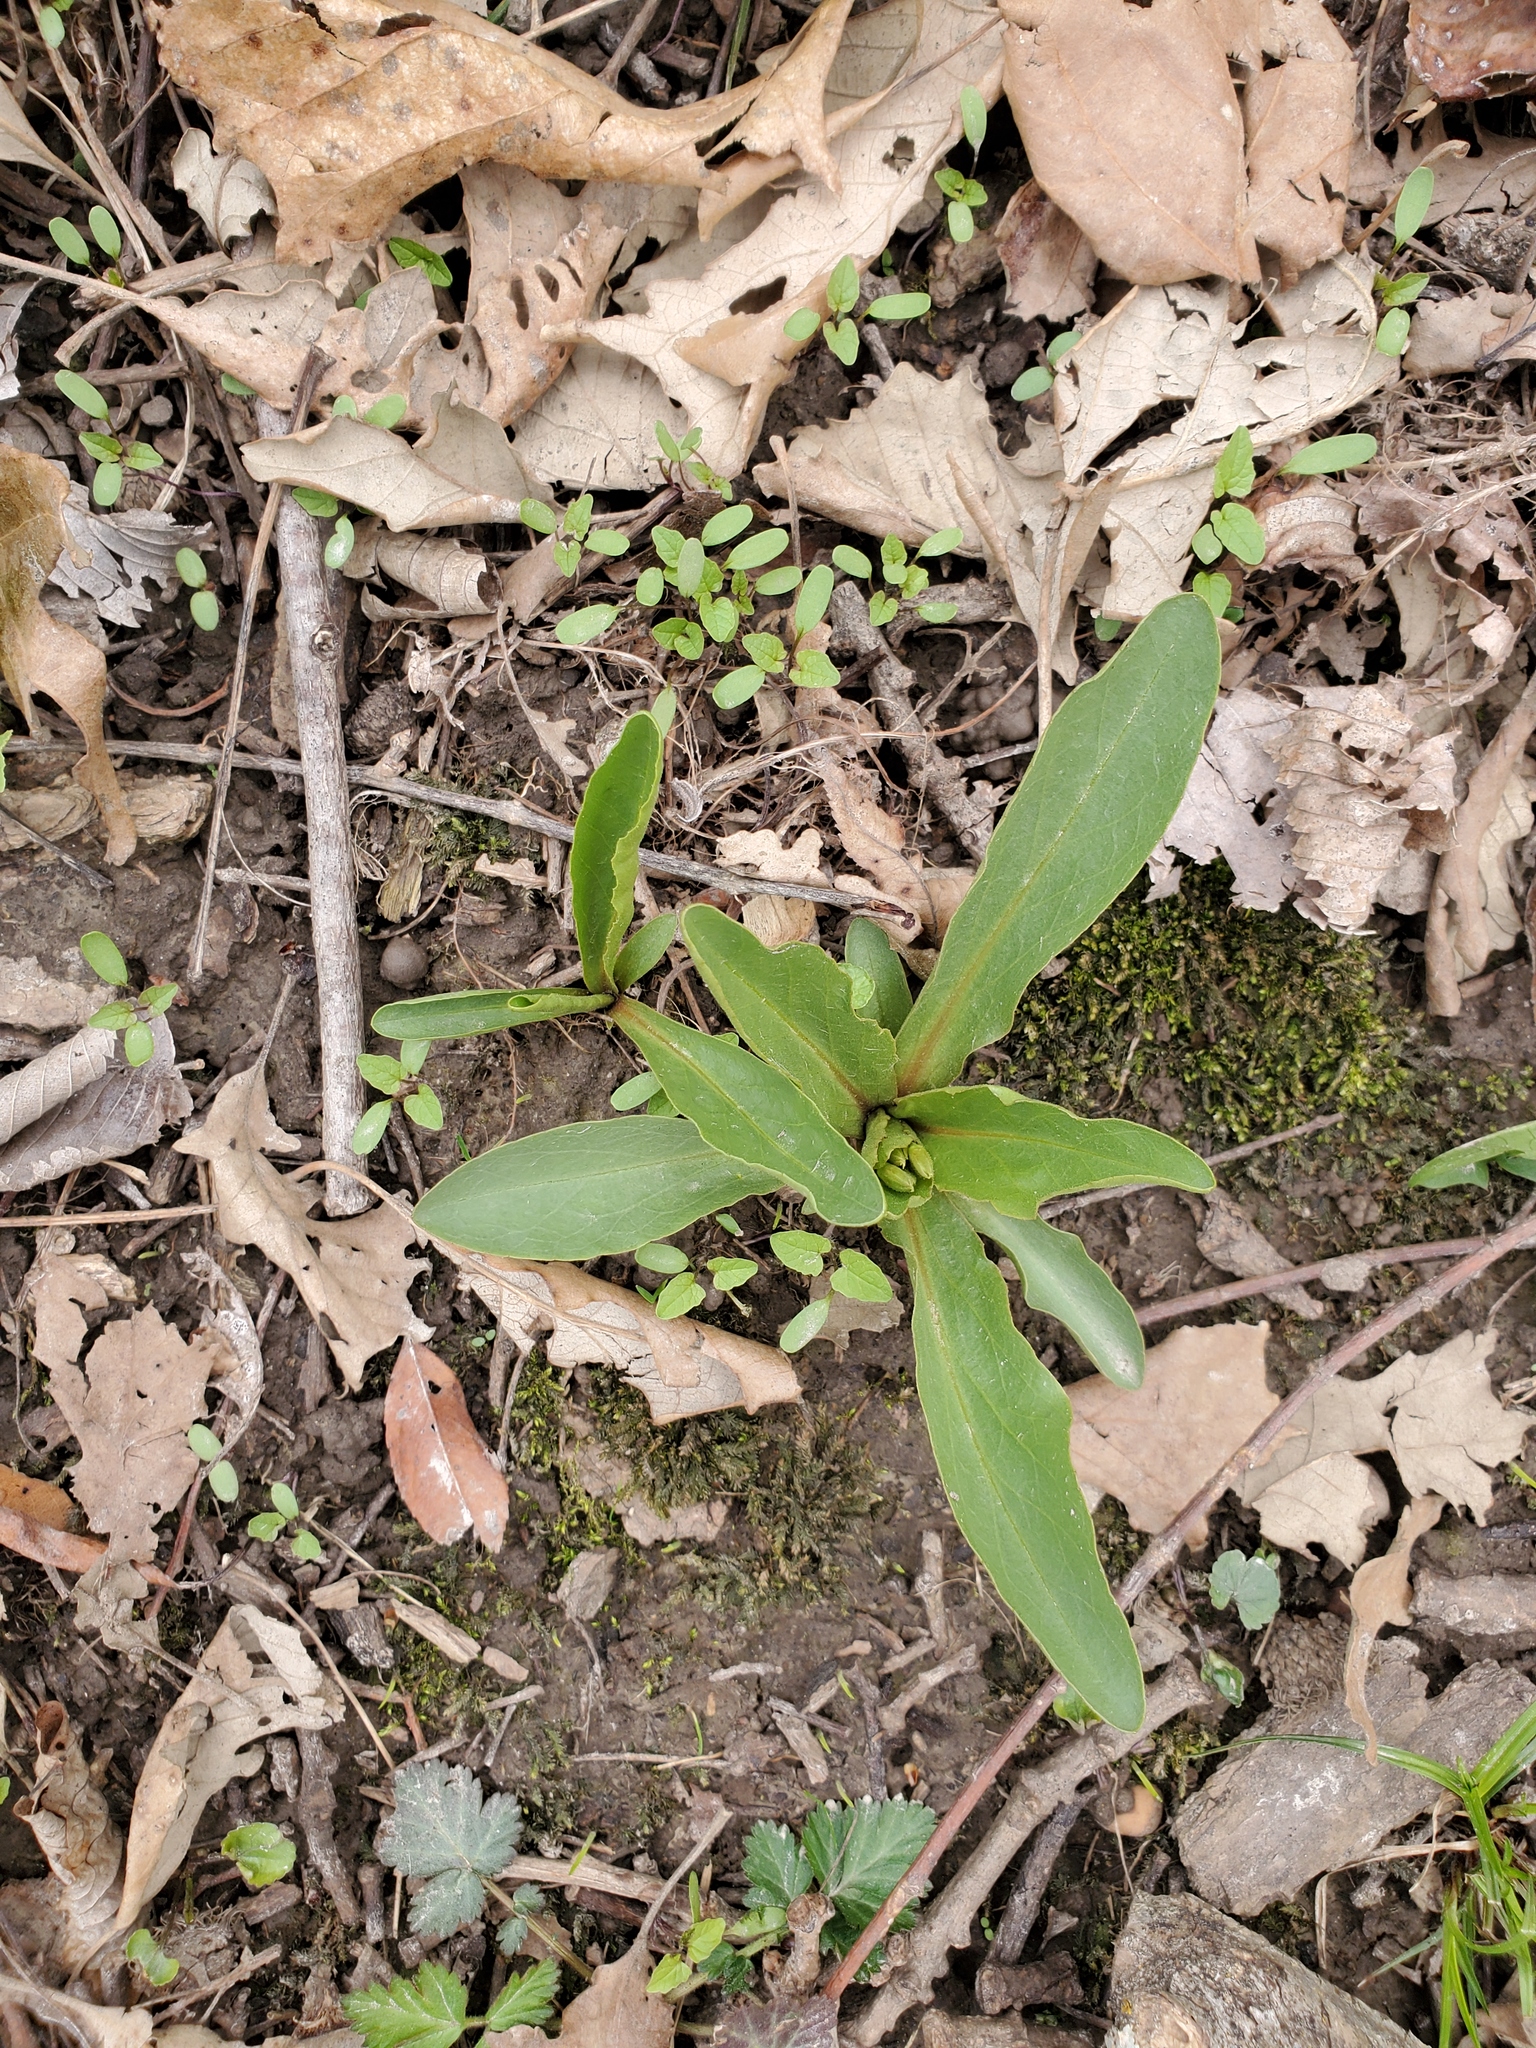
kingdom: Plantae
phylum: Tracheophyta
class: Magnoliopsida
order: Ericales
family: Primulaceae
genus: Dodecatheon
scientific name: Dodecatheon meadia
